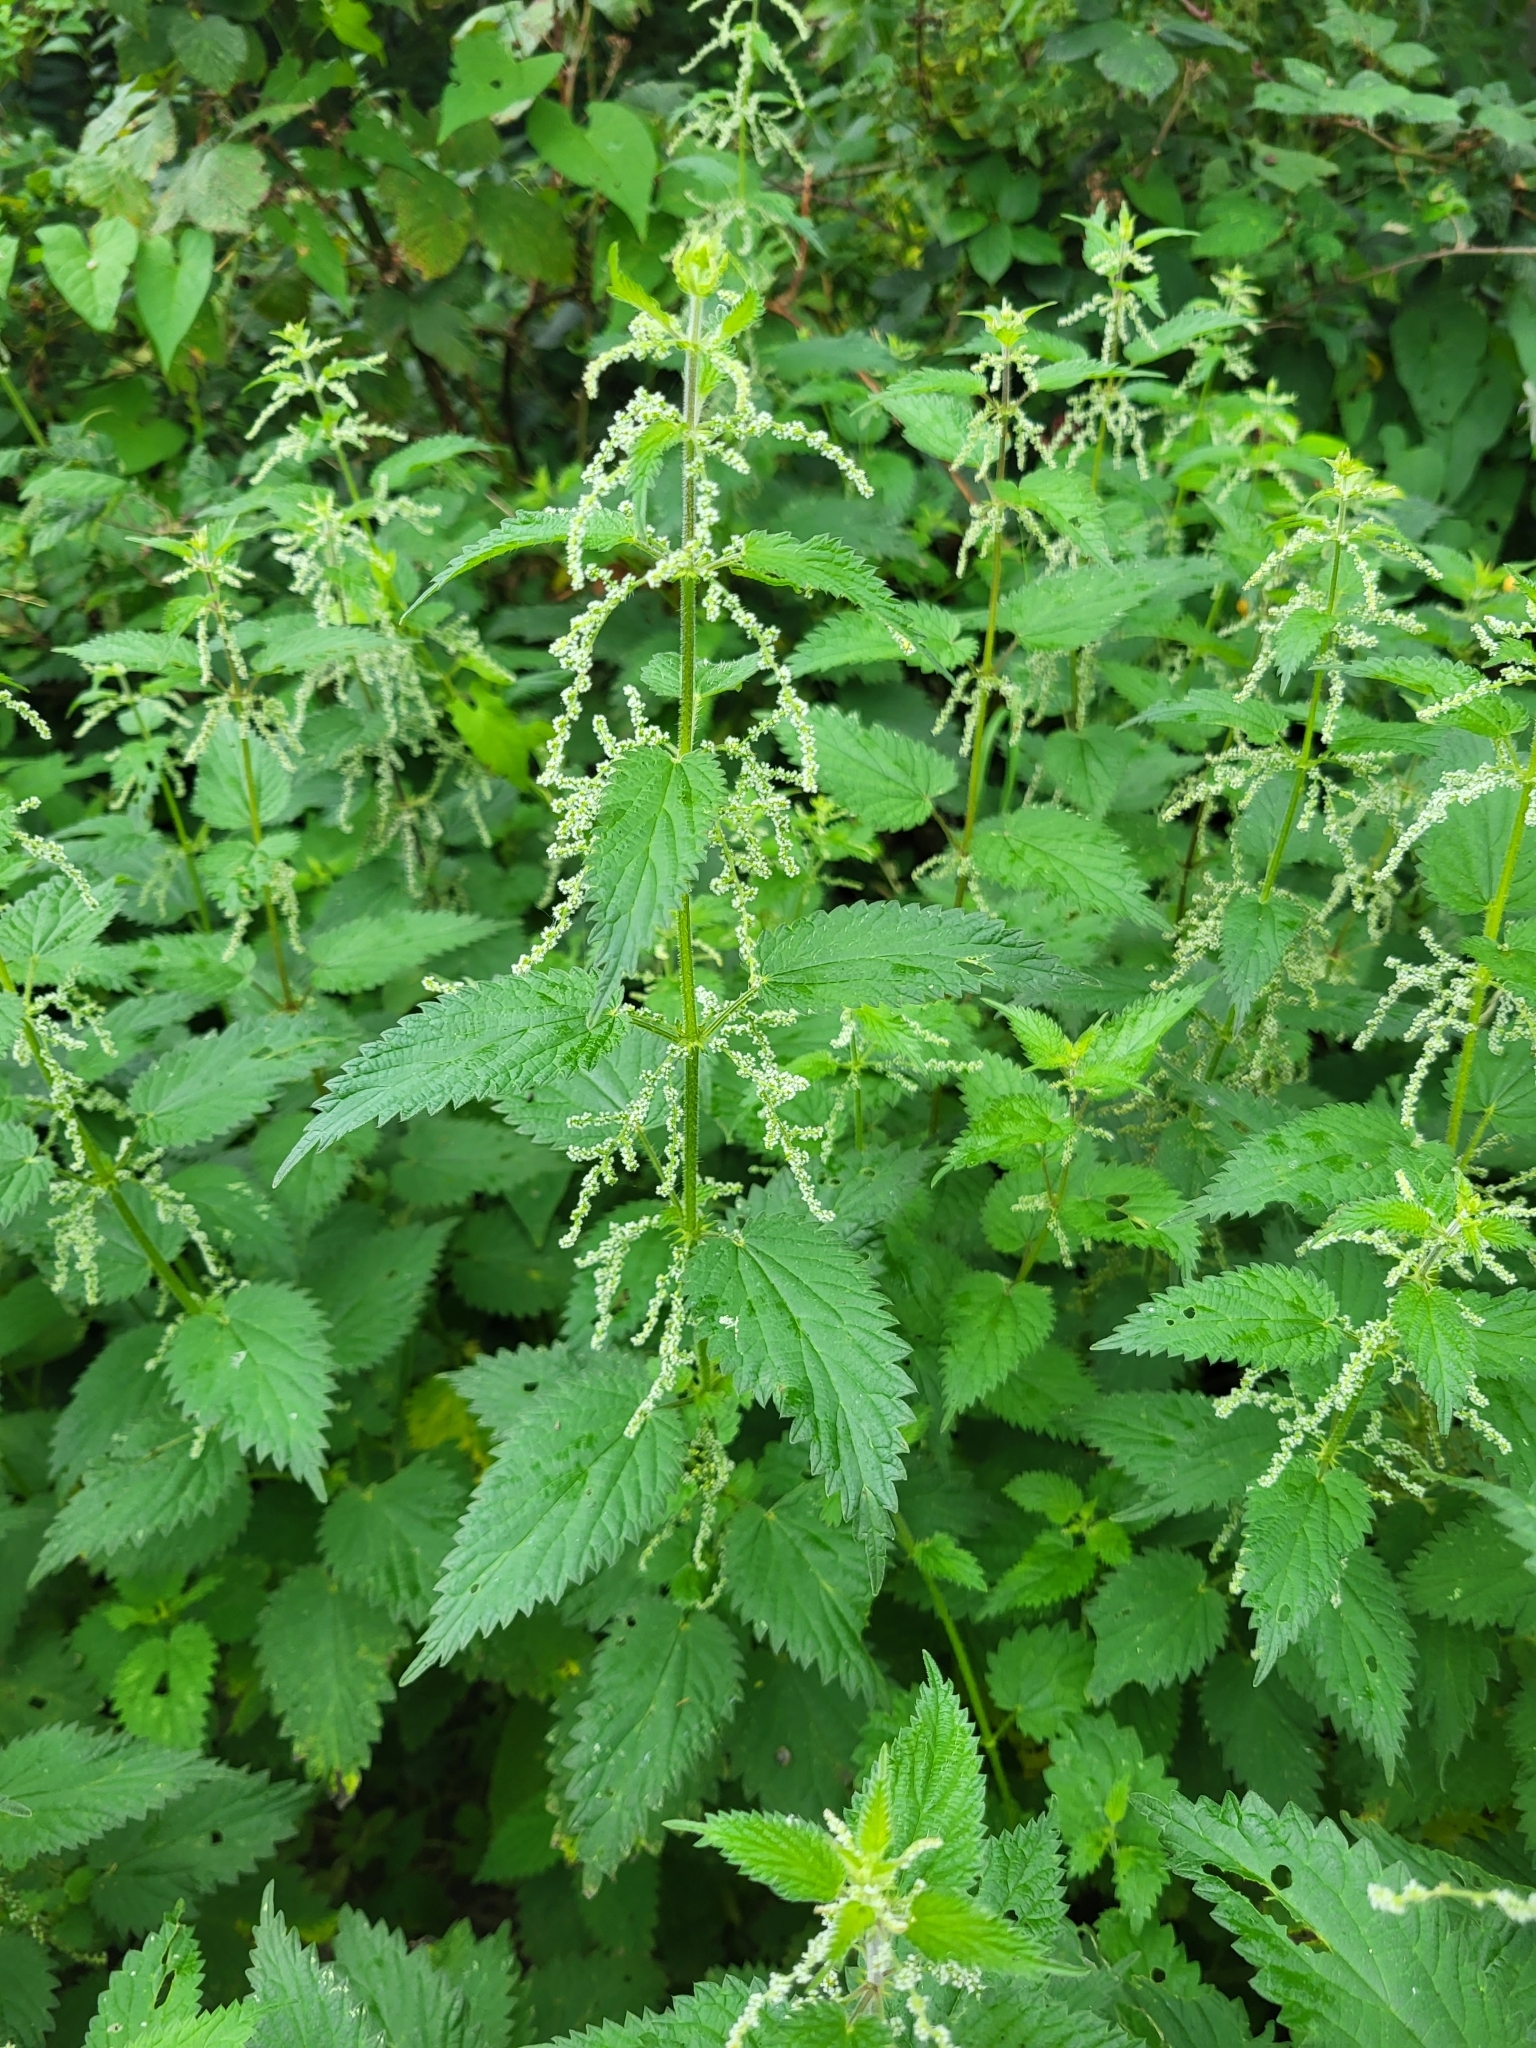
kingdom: Plantae
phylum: Tracheophyta
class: Magnoliopsida
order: Rosales
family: Urticaceae
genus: Urtica
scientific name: Urtica dioica
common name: Common nettle
